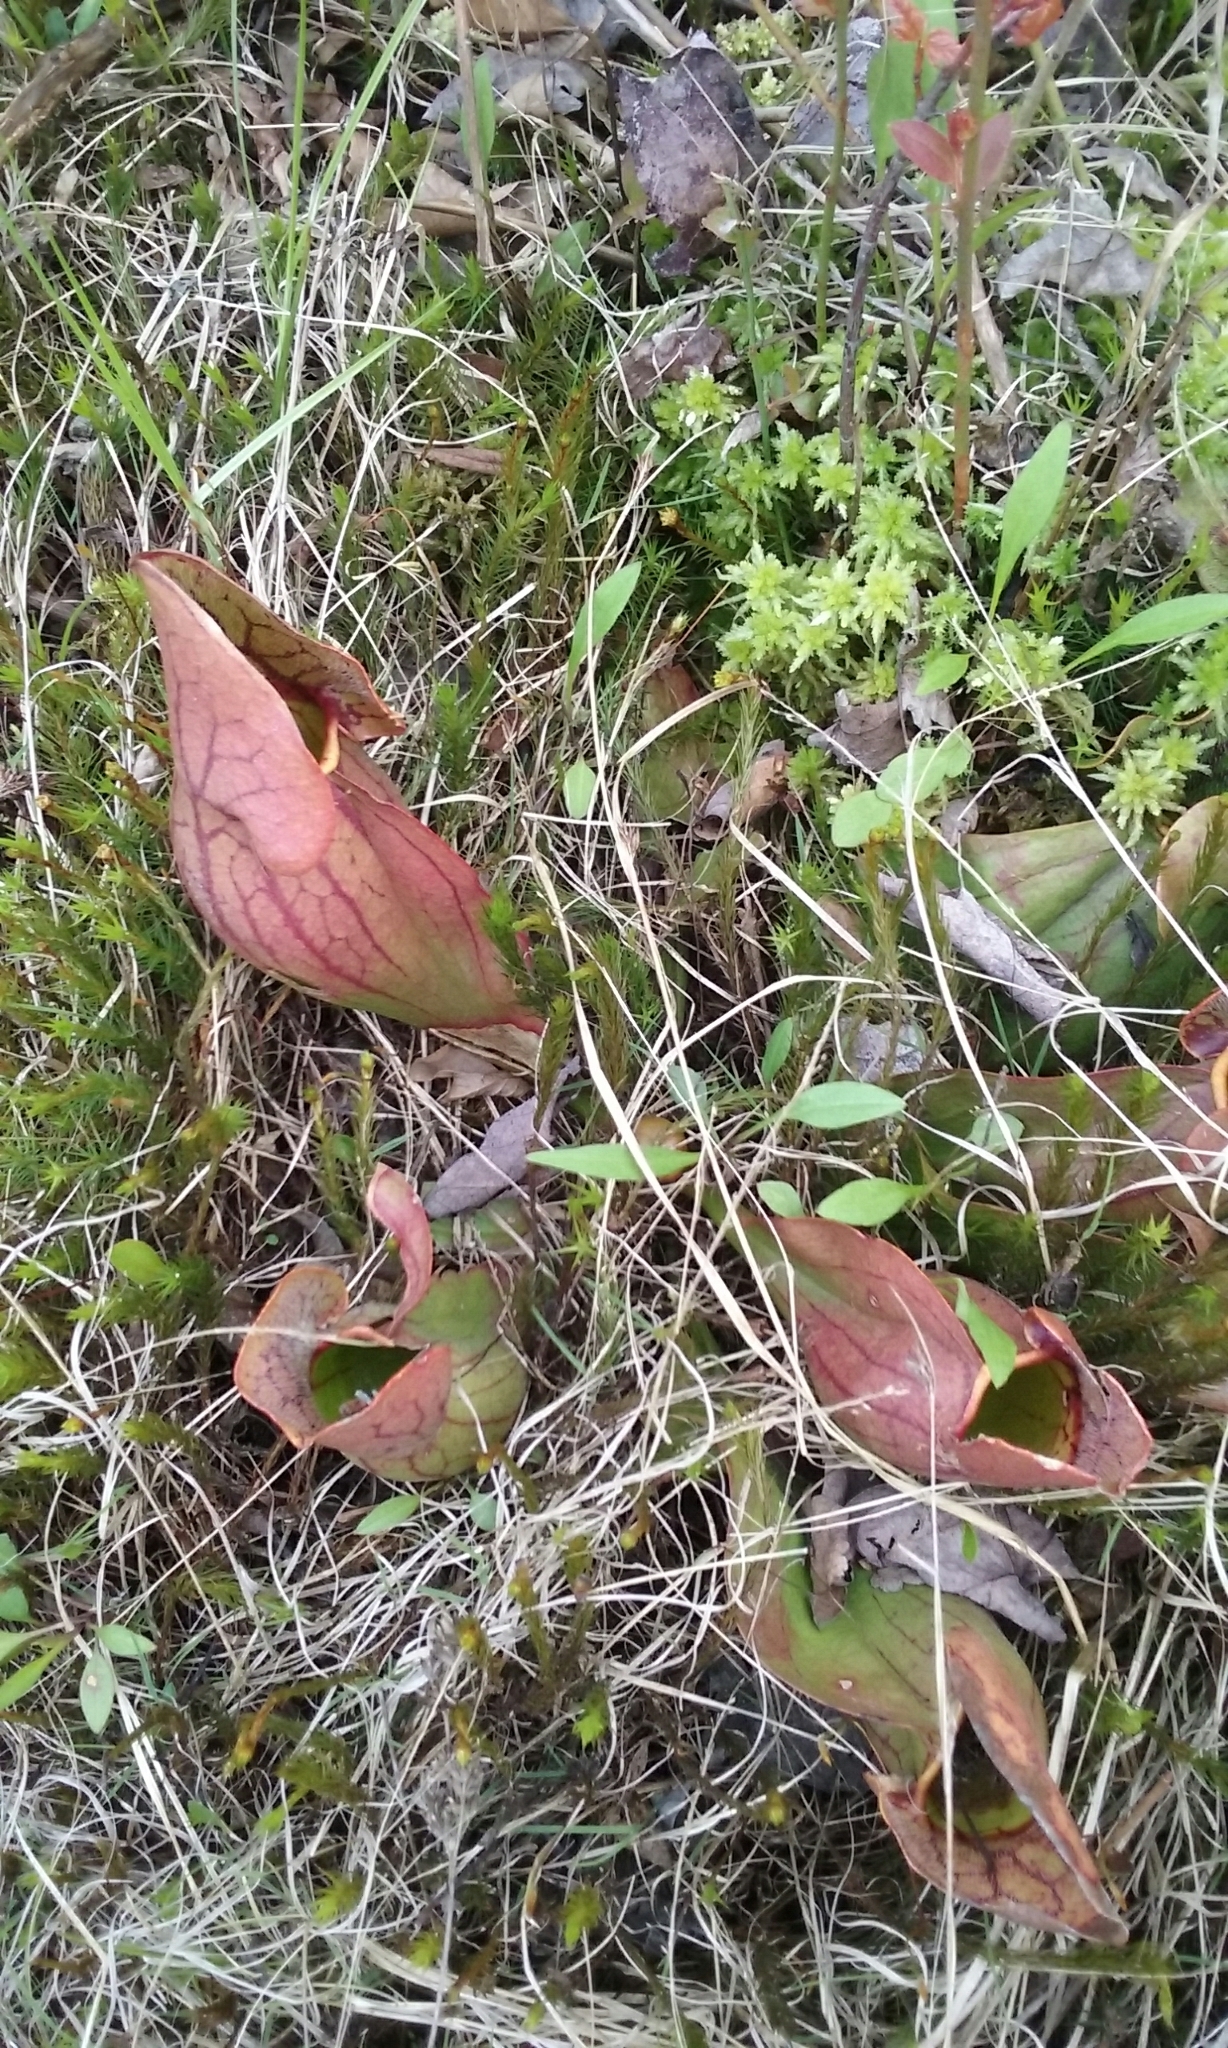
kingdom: Plantae
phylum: Tracheophyta
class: Magnoliopsida
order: Ericales
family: Sarraceniaceae
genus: Sarracenia
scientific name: Sarracenia purpurea
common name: Pitcherplant
